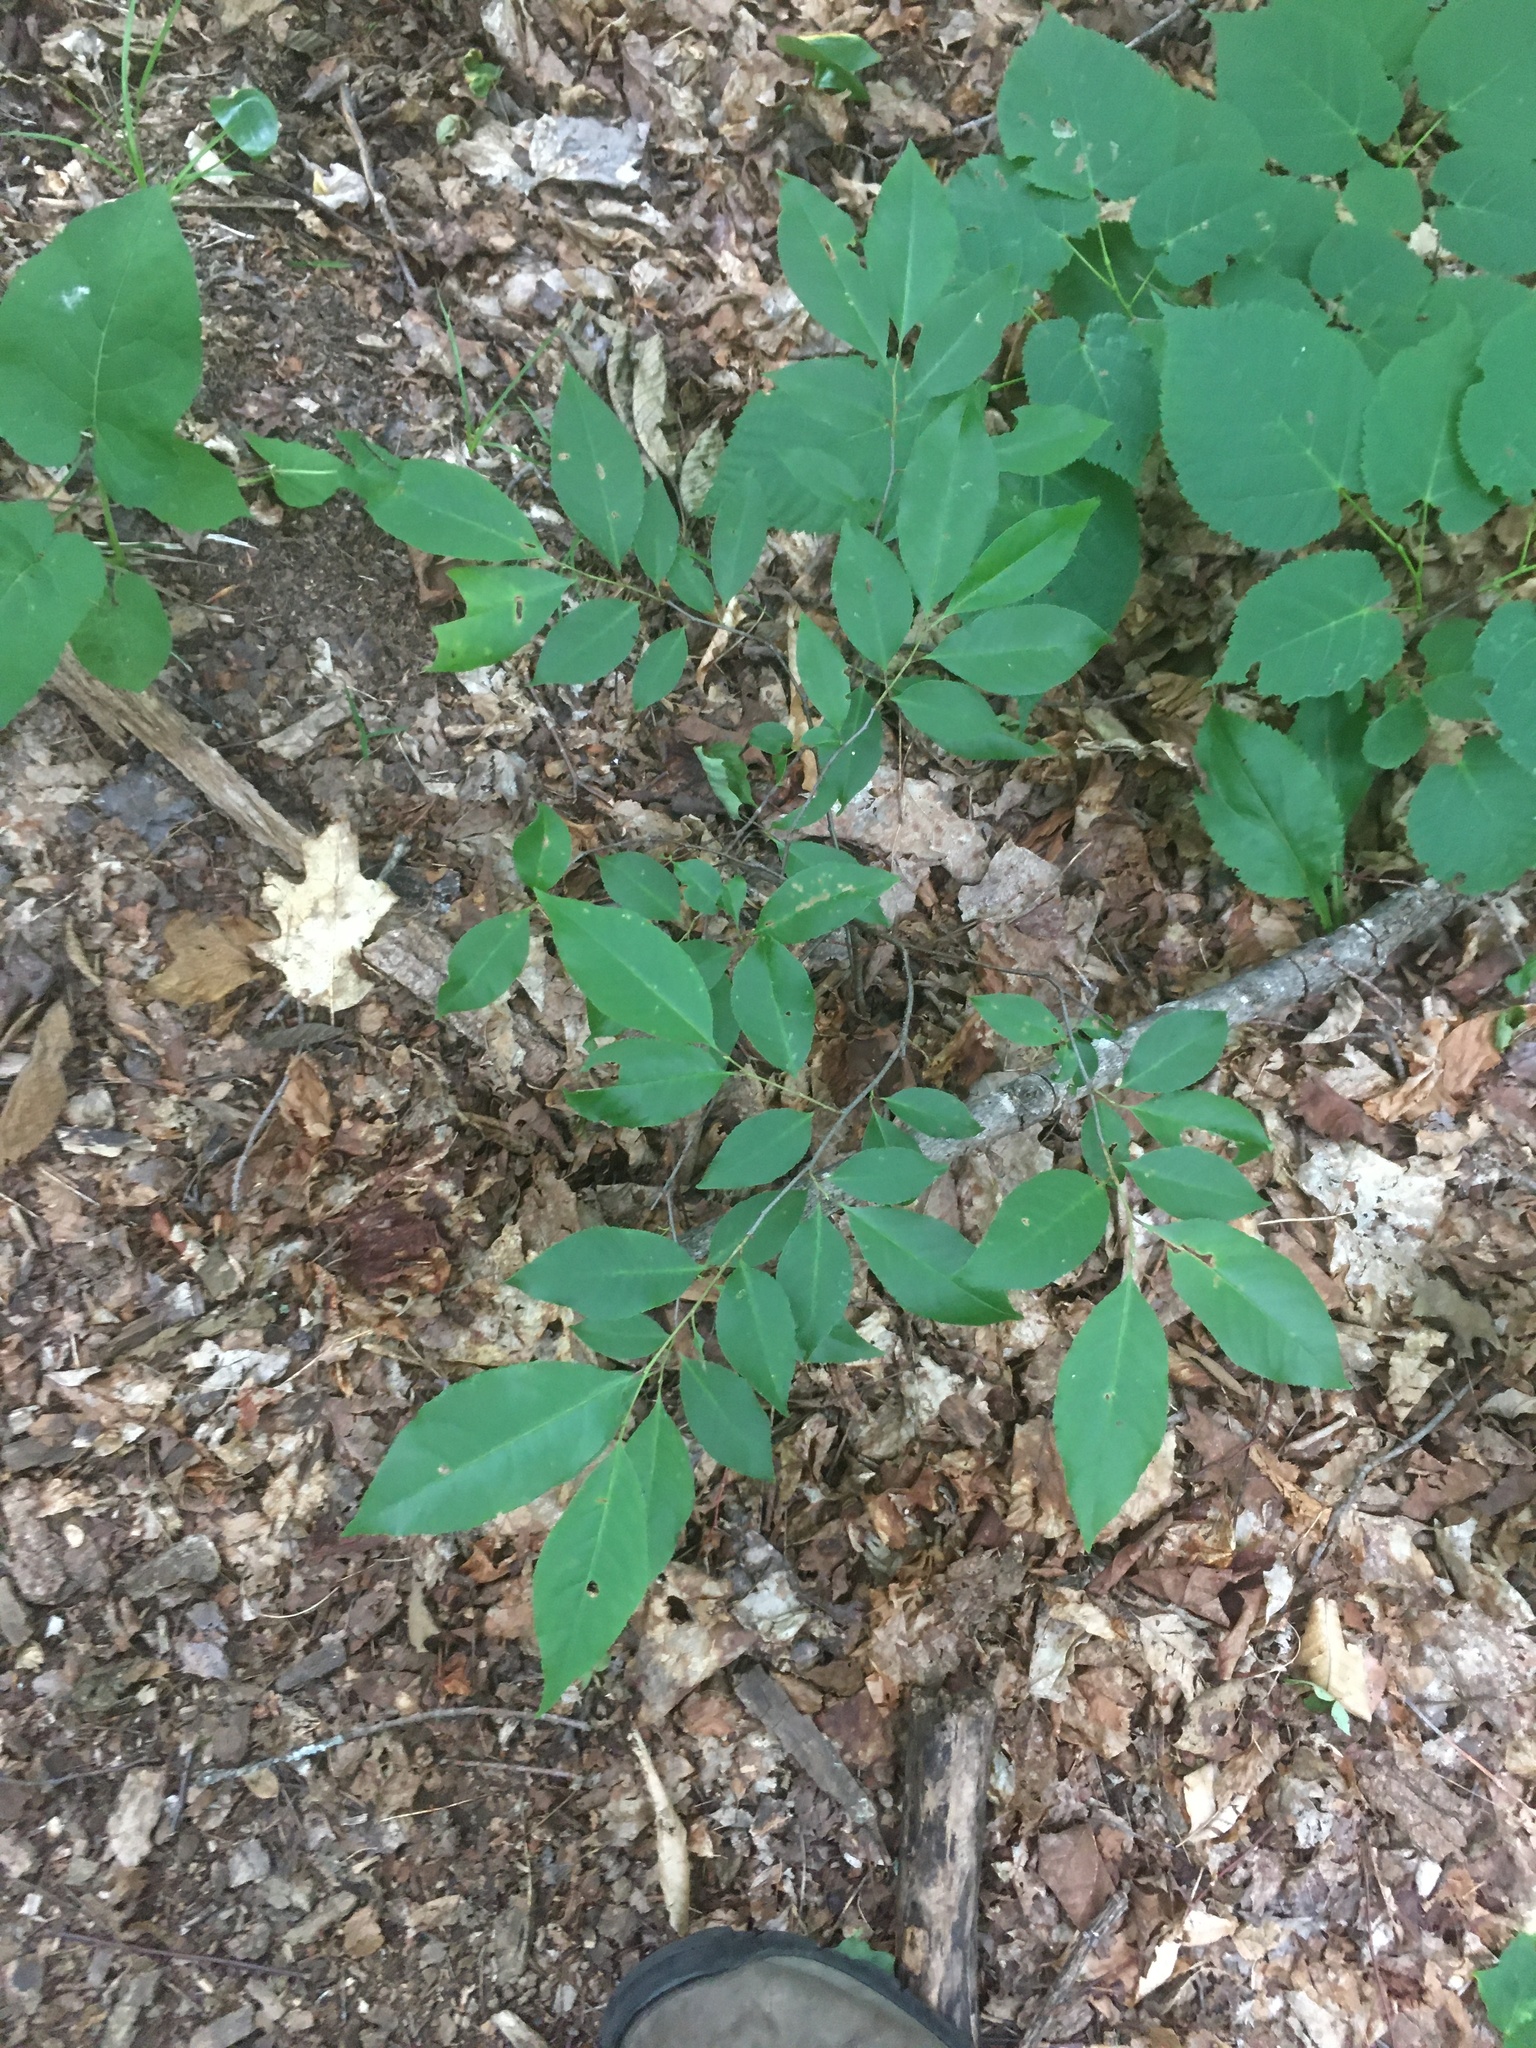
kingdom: Plantae
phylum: Tracheophyta
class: Magnoliopsida
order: Rosales
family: Rosaceae
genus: Prunus
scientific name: Prunus serotina
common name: Black cherry
